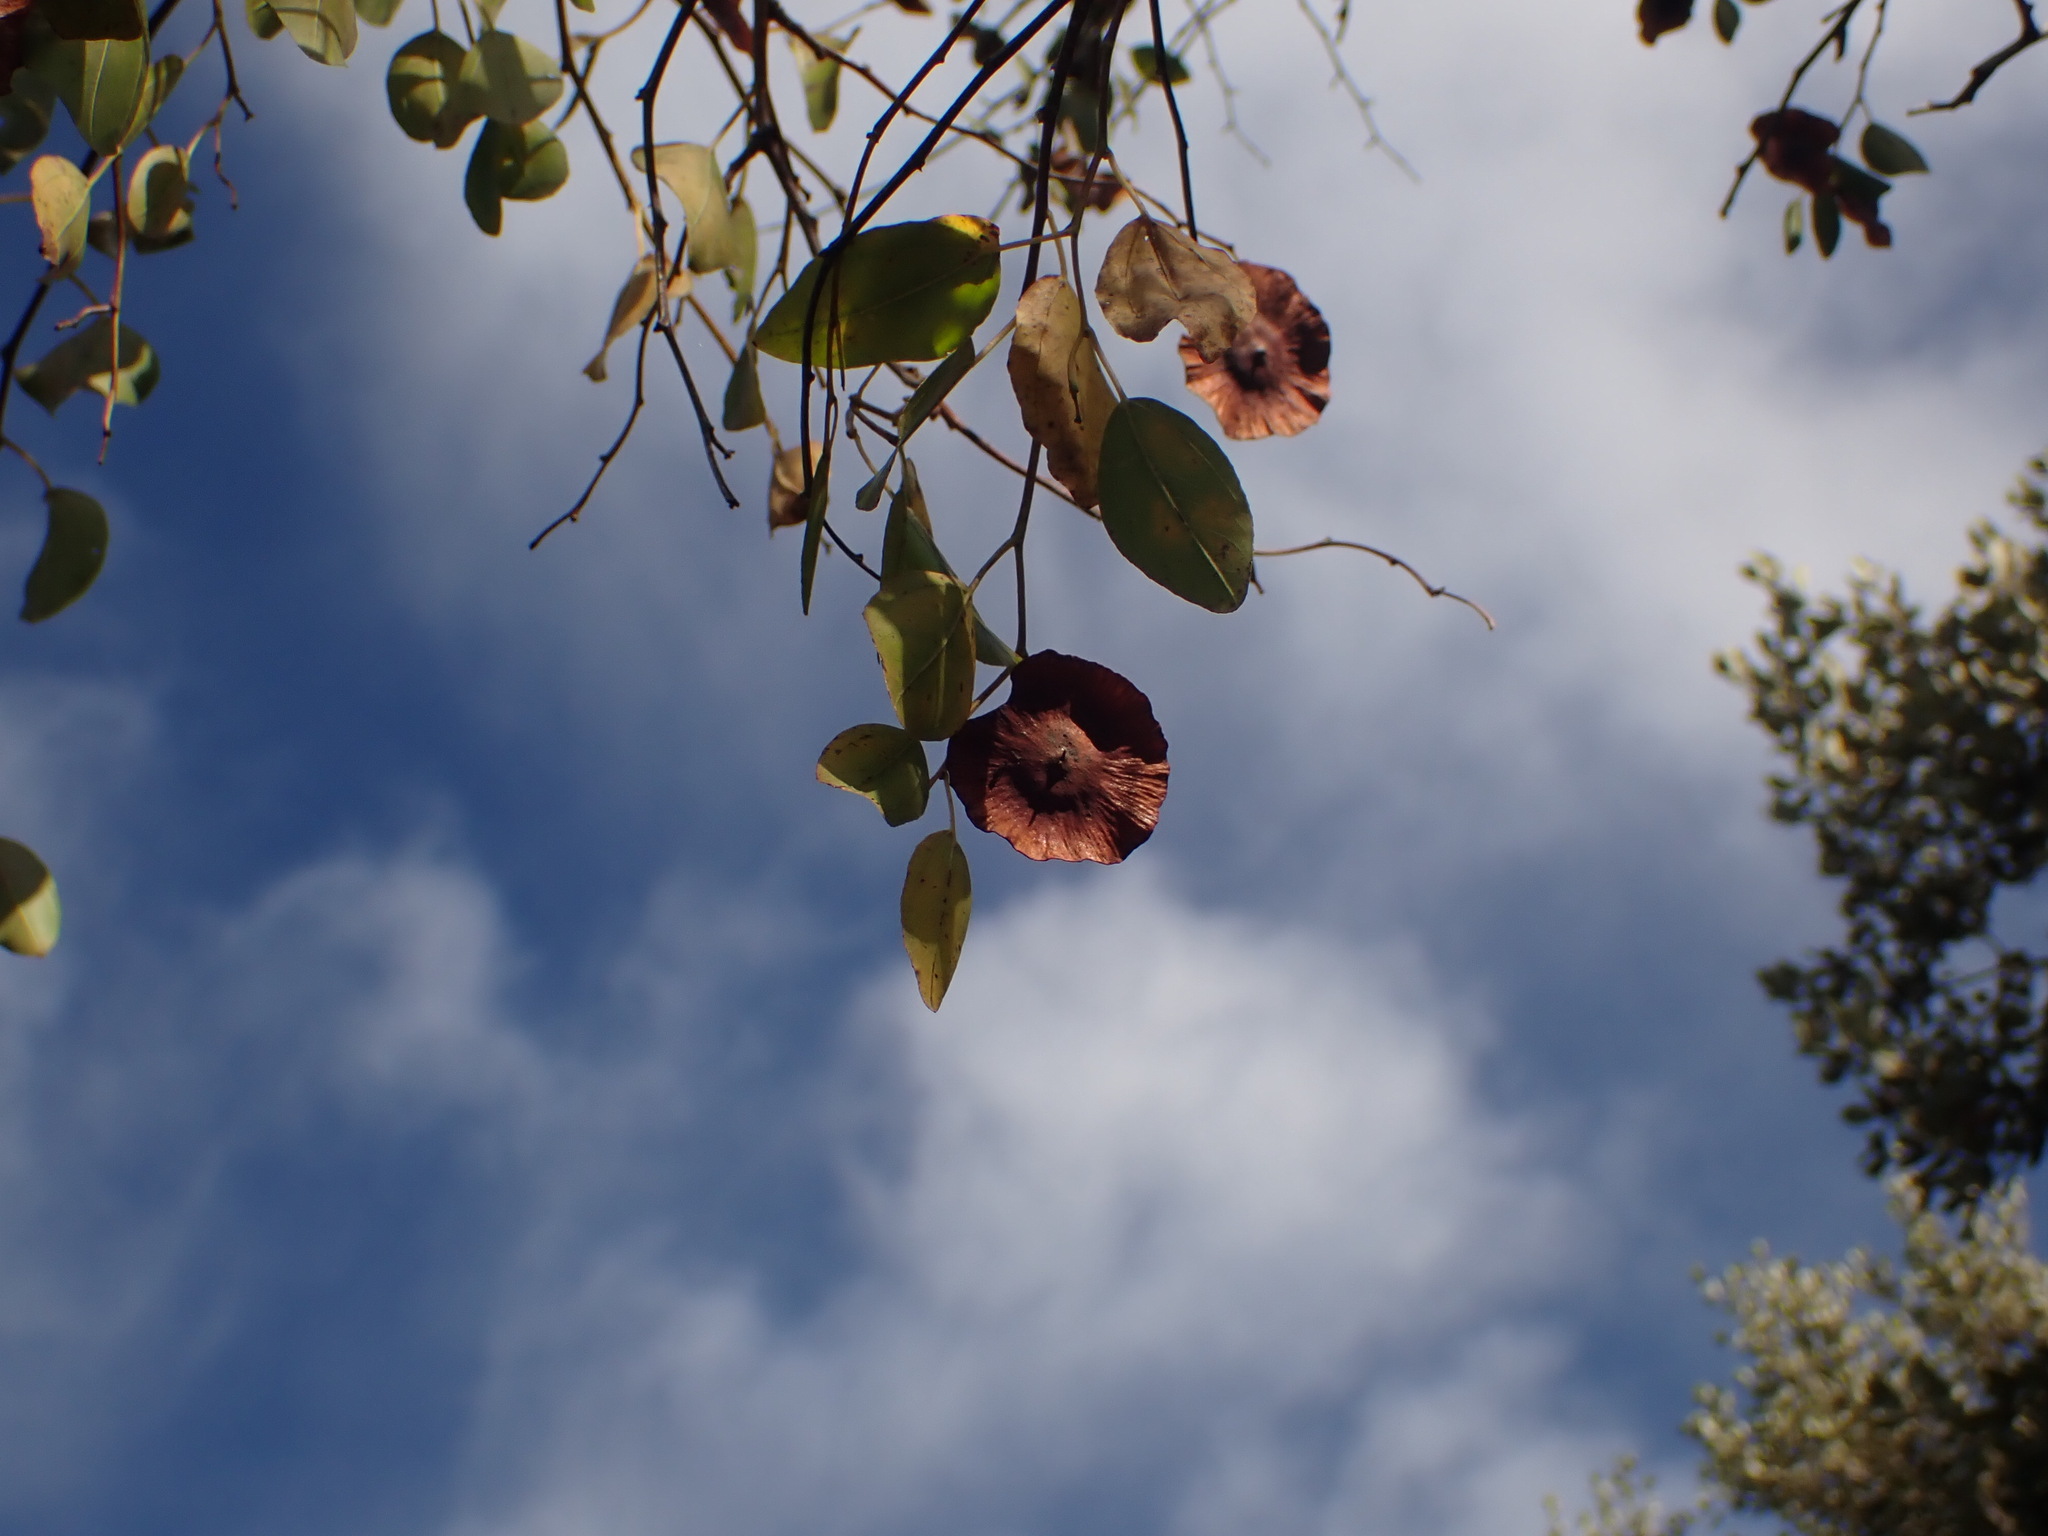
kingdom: Plantae
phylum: Tracheophyta
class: Magnoliopsida
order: Rosales
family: Rhamnaceae
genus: Paliurus
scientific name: Paliurus spina-christi
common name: Jeruselem thorn
